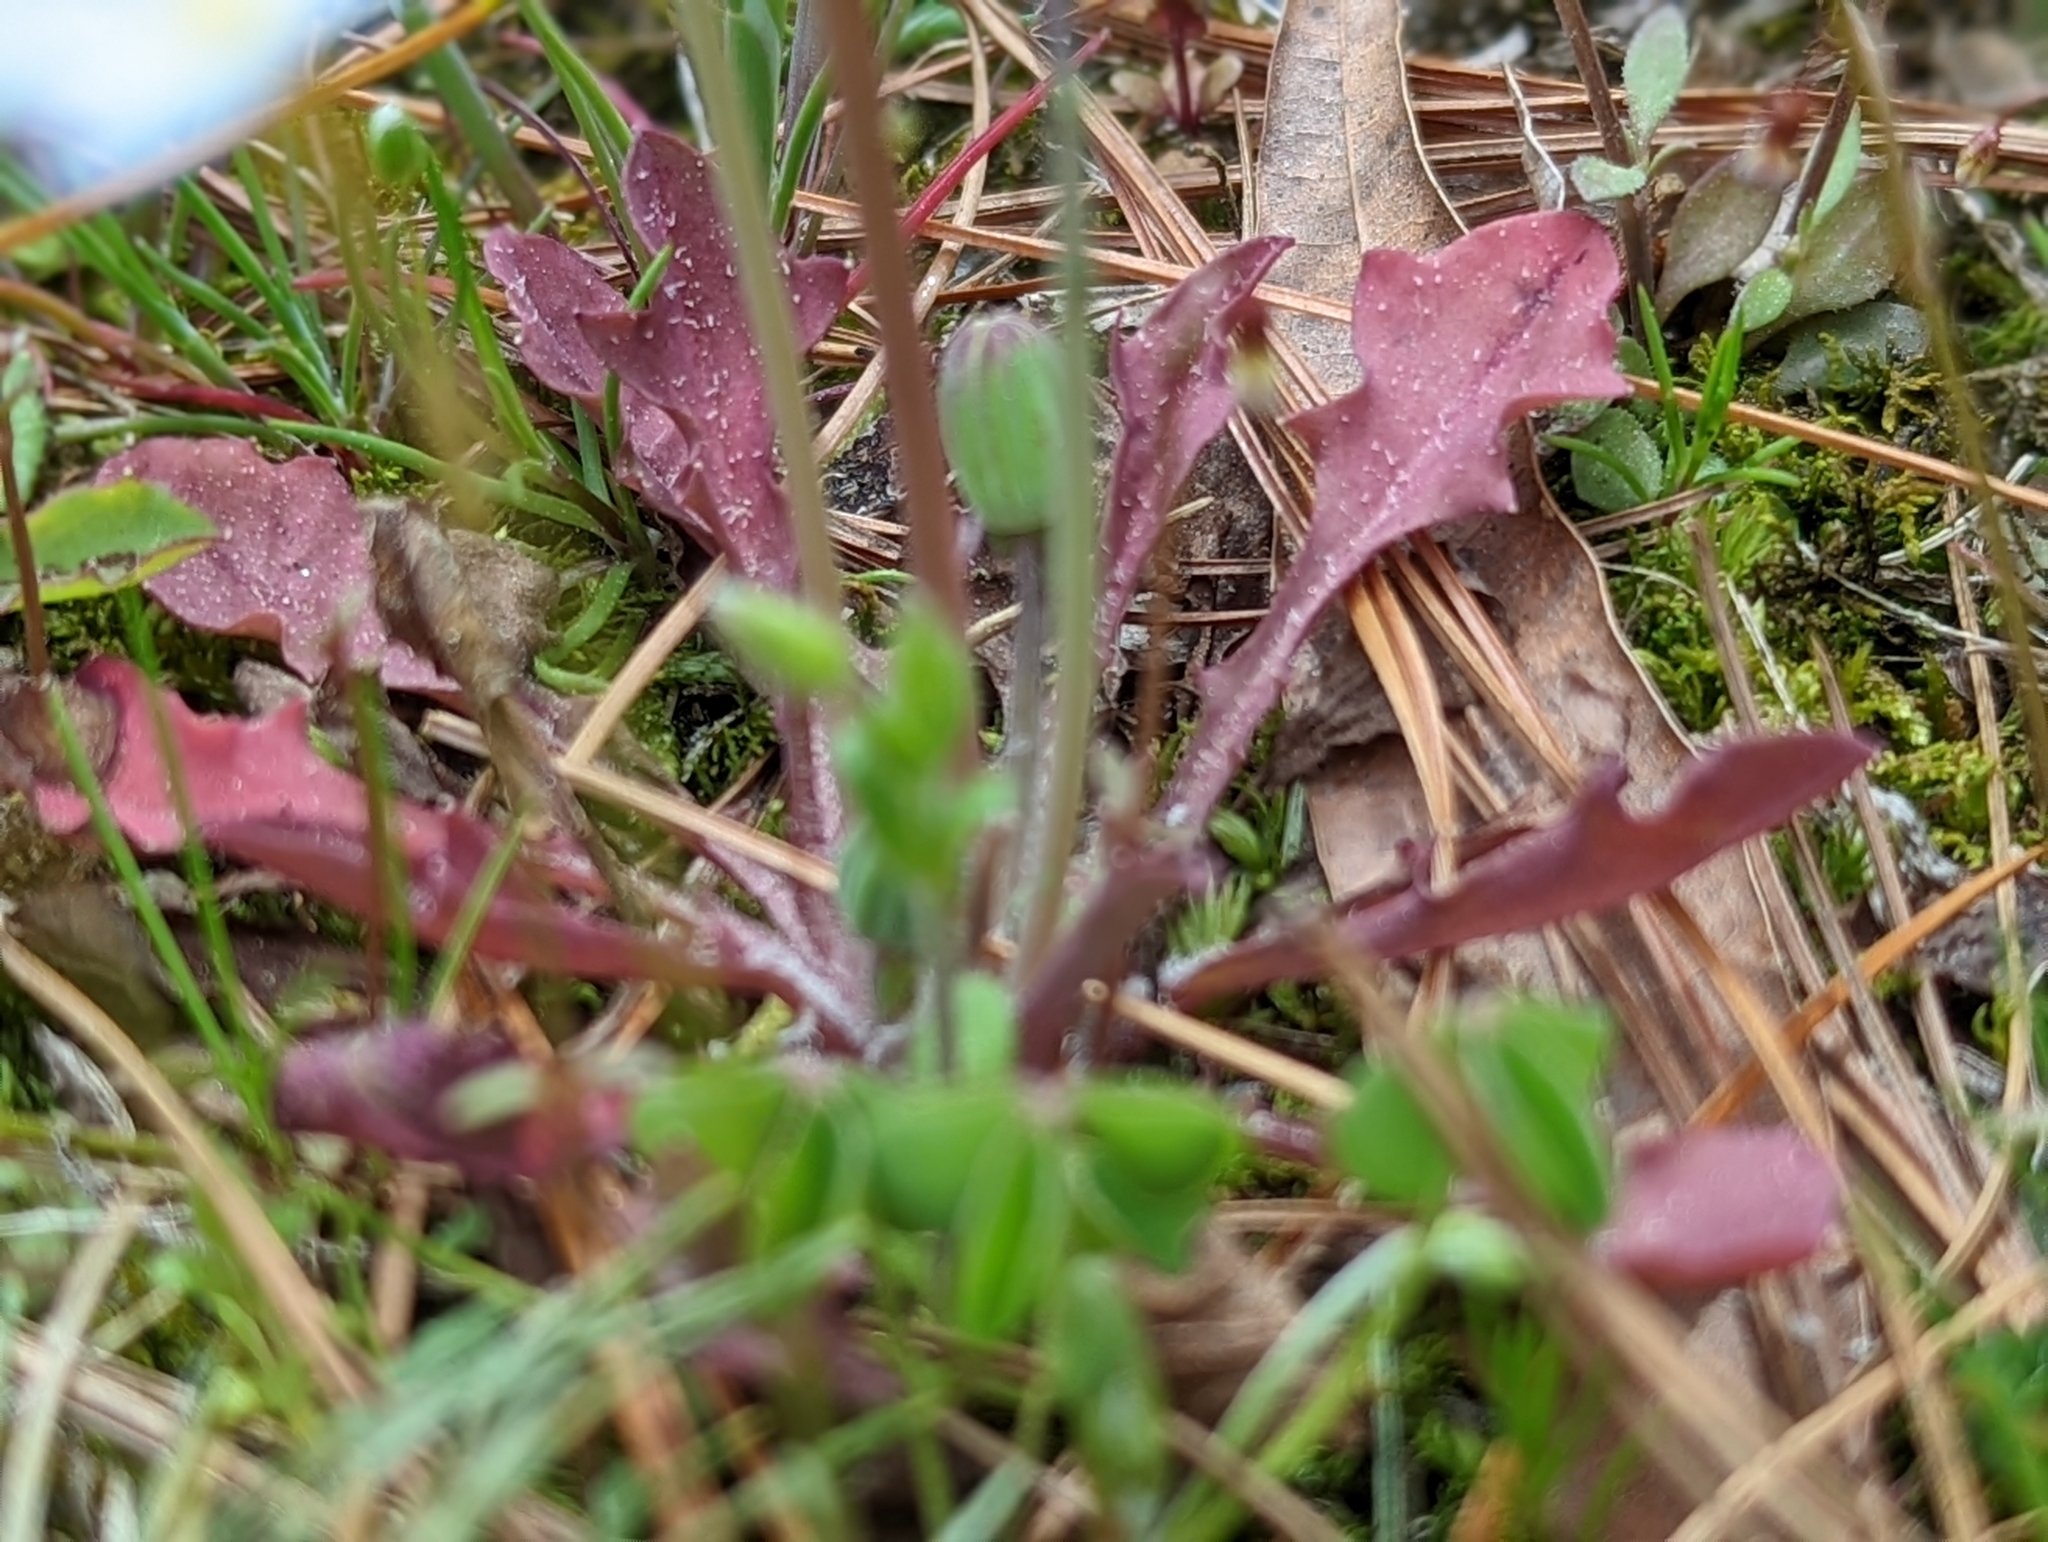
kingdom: Plantae
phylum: Tracheophyta
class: Magnoliopsida
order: Asterales
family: Asteraceae
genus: Krigia
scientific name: Krigia virginica
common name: Virginia dwarf-dandelion
